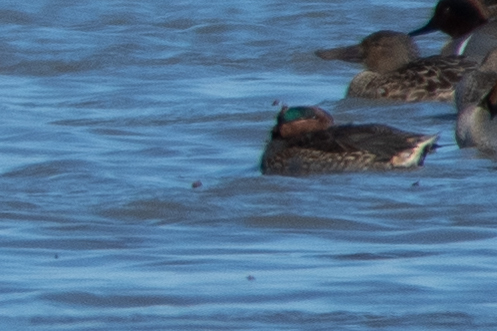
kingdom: Animalia
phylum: Chordata
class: Aves
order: Anseriformes
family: Anatidae
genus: Anas
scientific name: Anas crecca
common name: Eurasian teal
